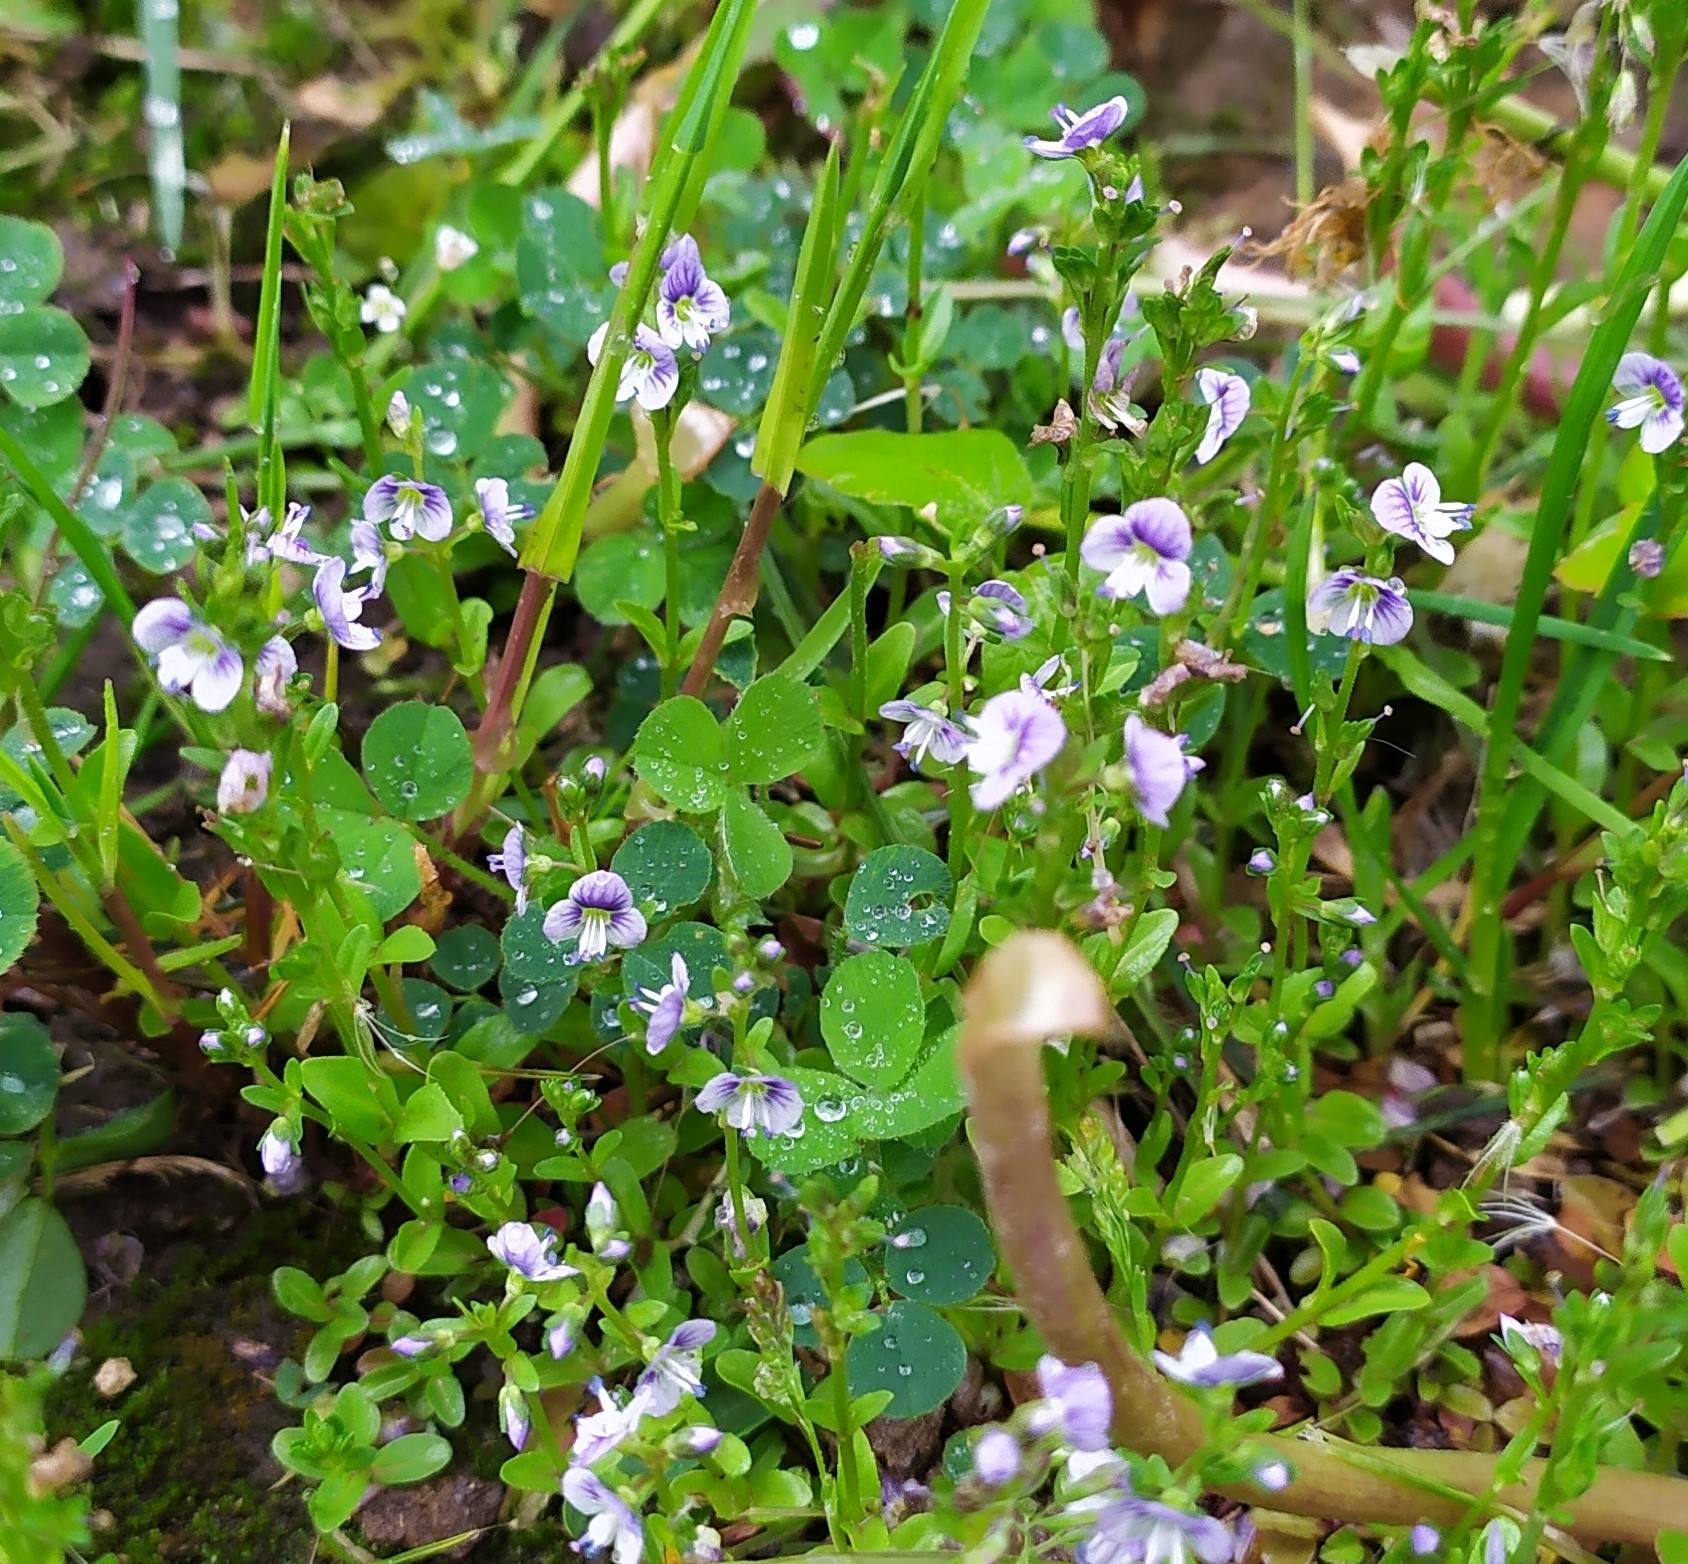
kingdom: Plantae
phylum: Tracheophyta
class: Magnoliopsida
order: Lamiales
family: Plantaginaceae
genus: Veronica
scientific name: Veronica serpyllifolia
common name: Thyme-leaved speedwell
